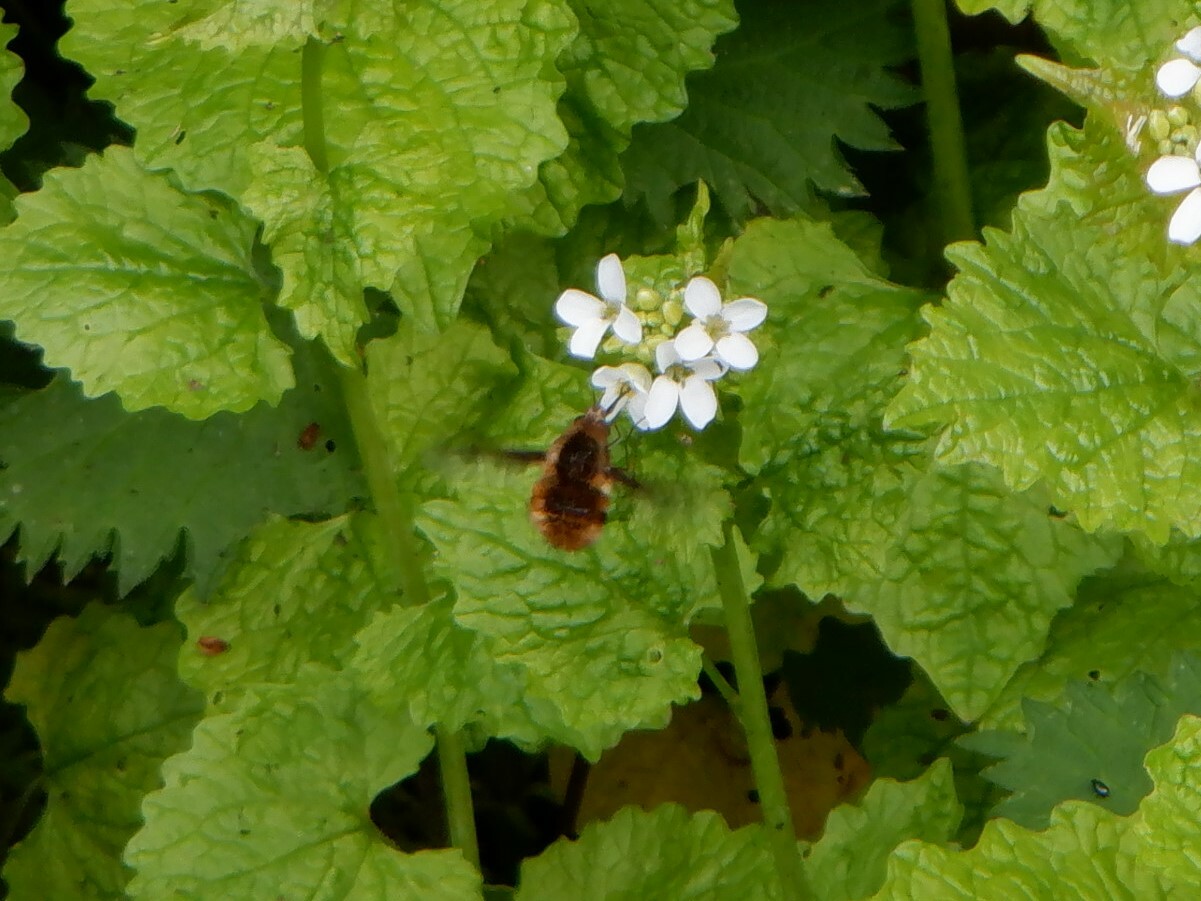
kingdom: Animalia
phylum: Arthropoda
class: Insecta
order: Diptera
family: Bombyliidae
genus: Bombylius
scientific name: Bombylius major
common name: Bee fly
